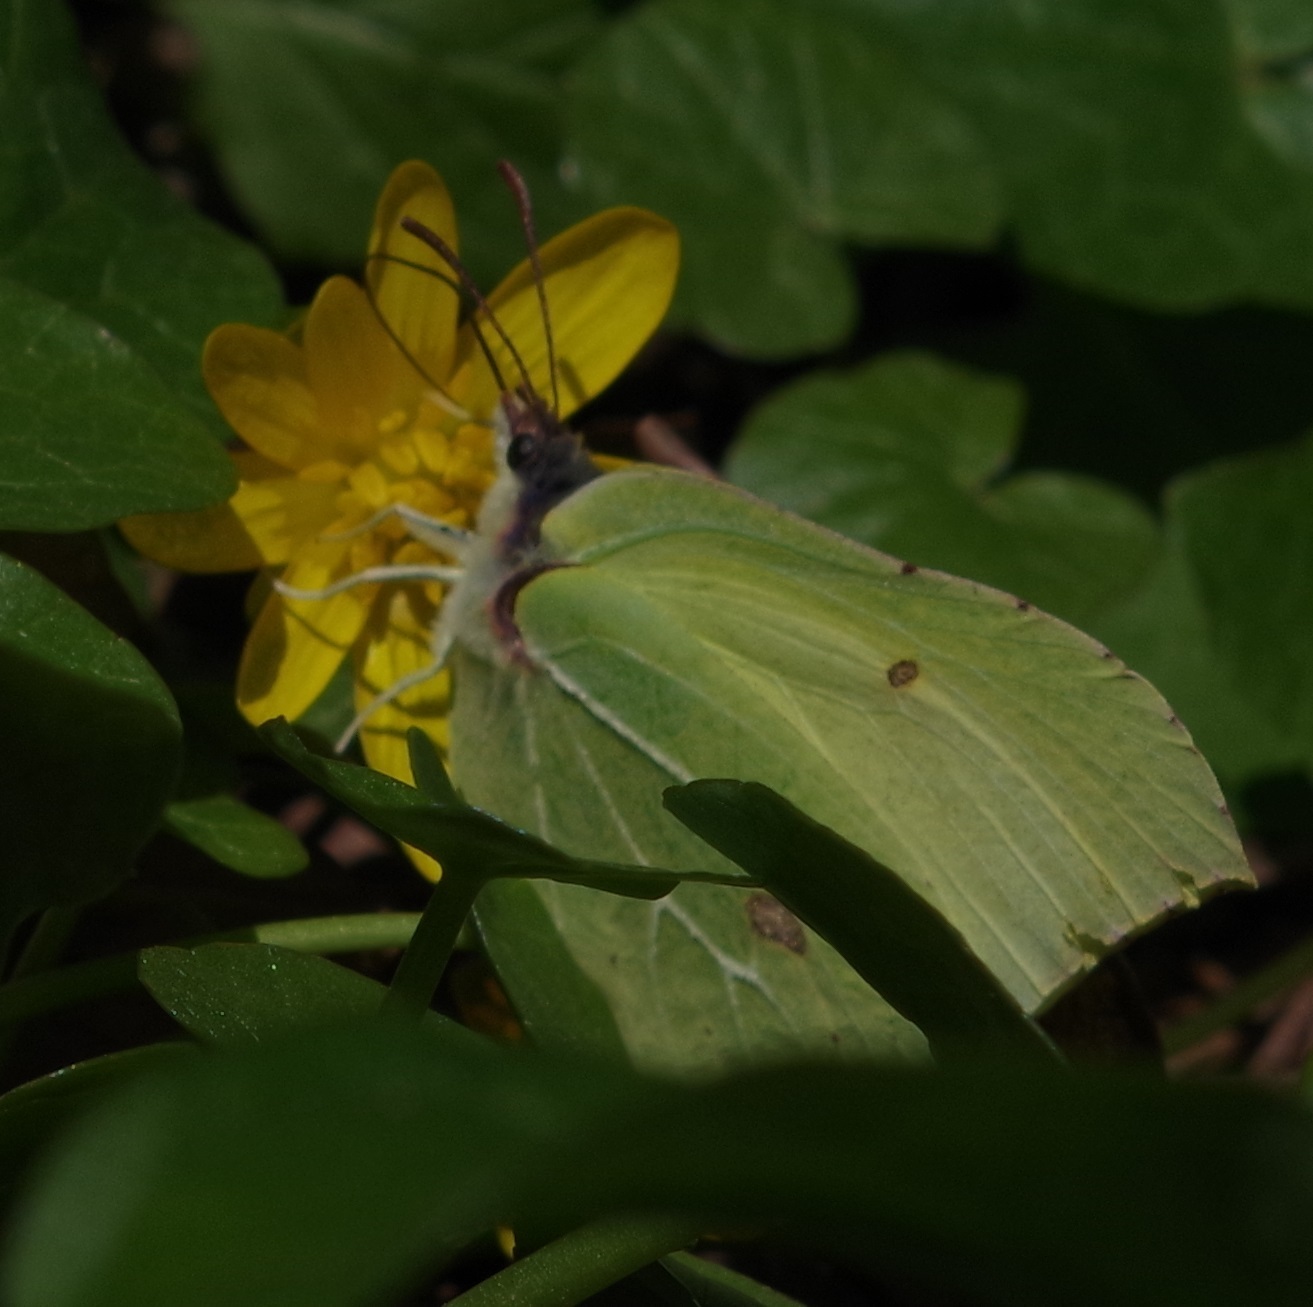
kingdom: Animalia
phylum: Arthropoda
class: Insecta
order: Lepidoptera
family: Pieridae
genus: Gonepteryx
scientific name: Gonepteryx rhamni
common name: Brimstone
